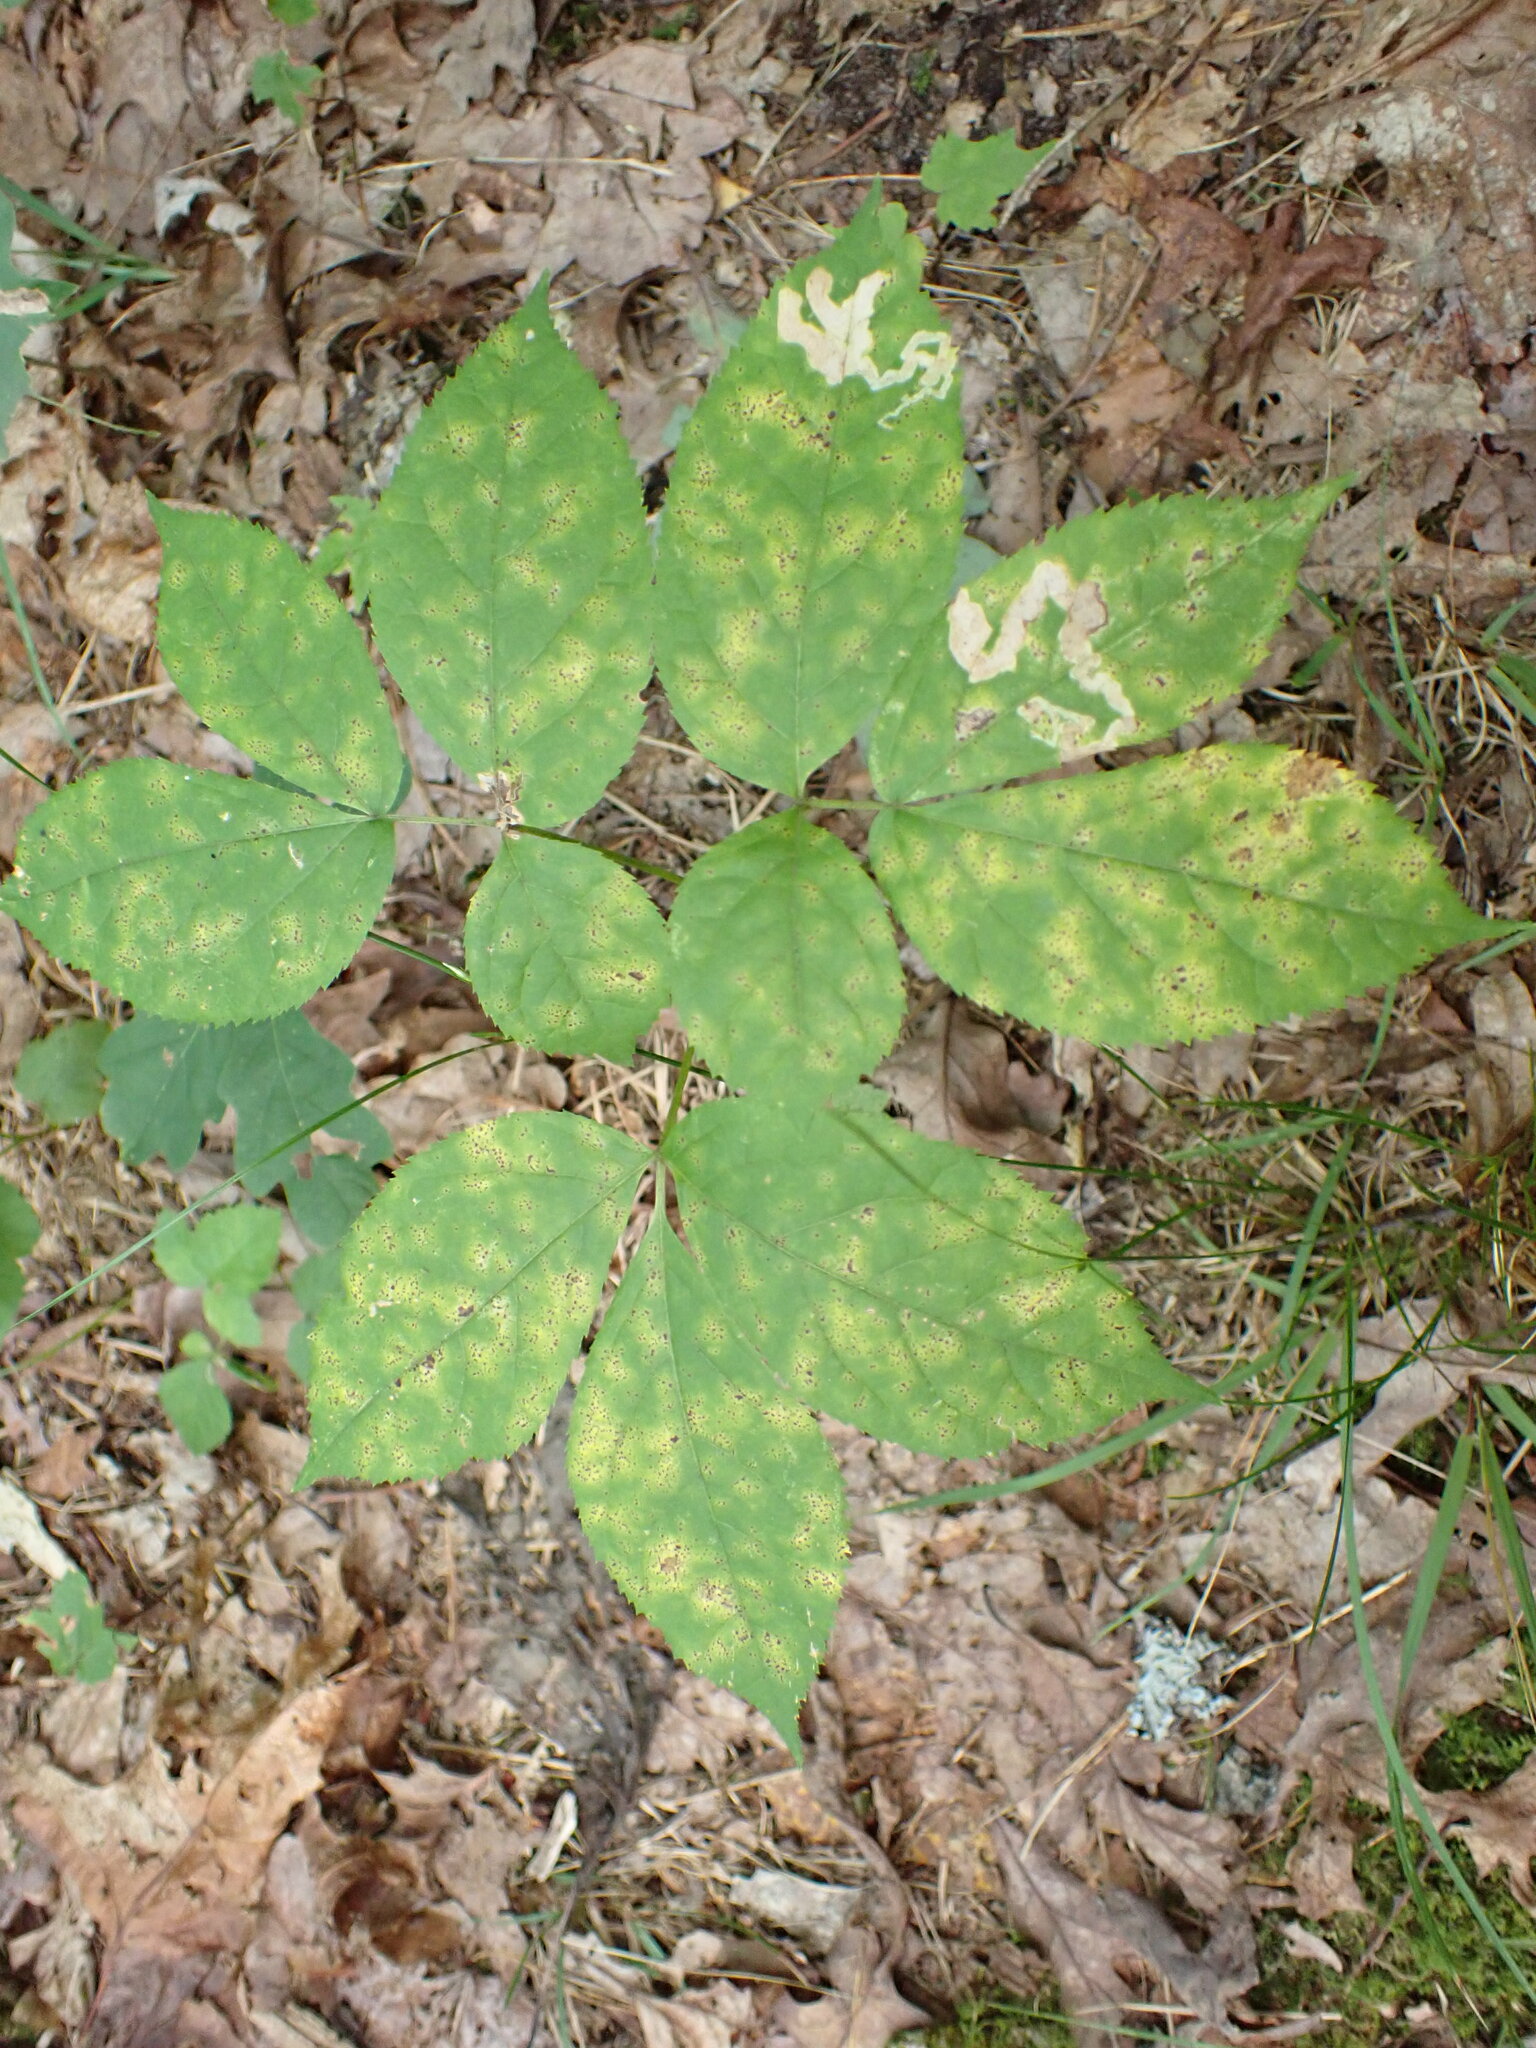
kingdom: Plantae
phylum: Tracheophyta
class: Magnoliopsida
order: Apiales
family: Araliaceae
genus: Aralia
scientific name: Aralia nudicaulis
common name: Wild sarsaparilla
